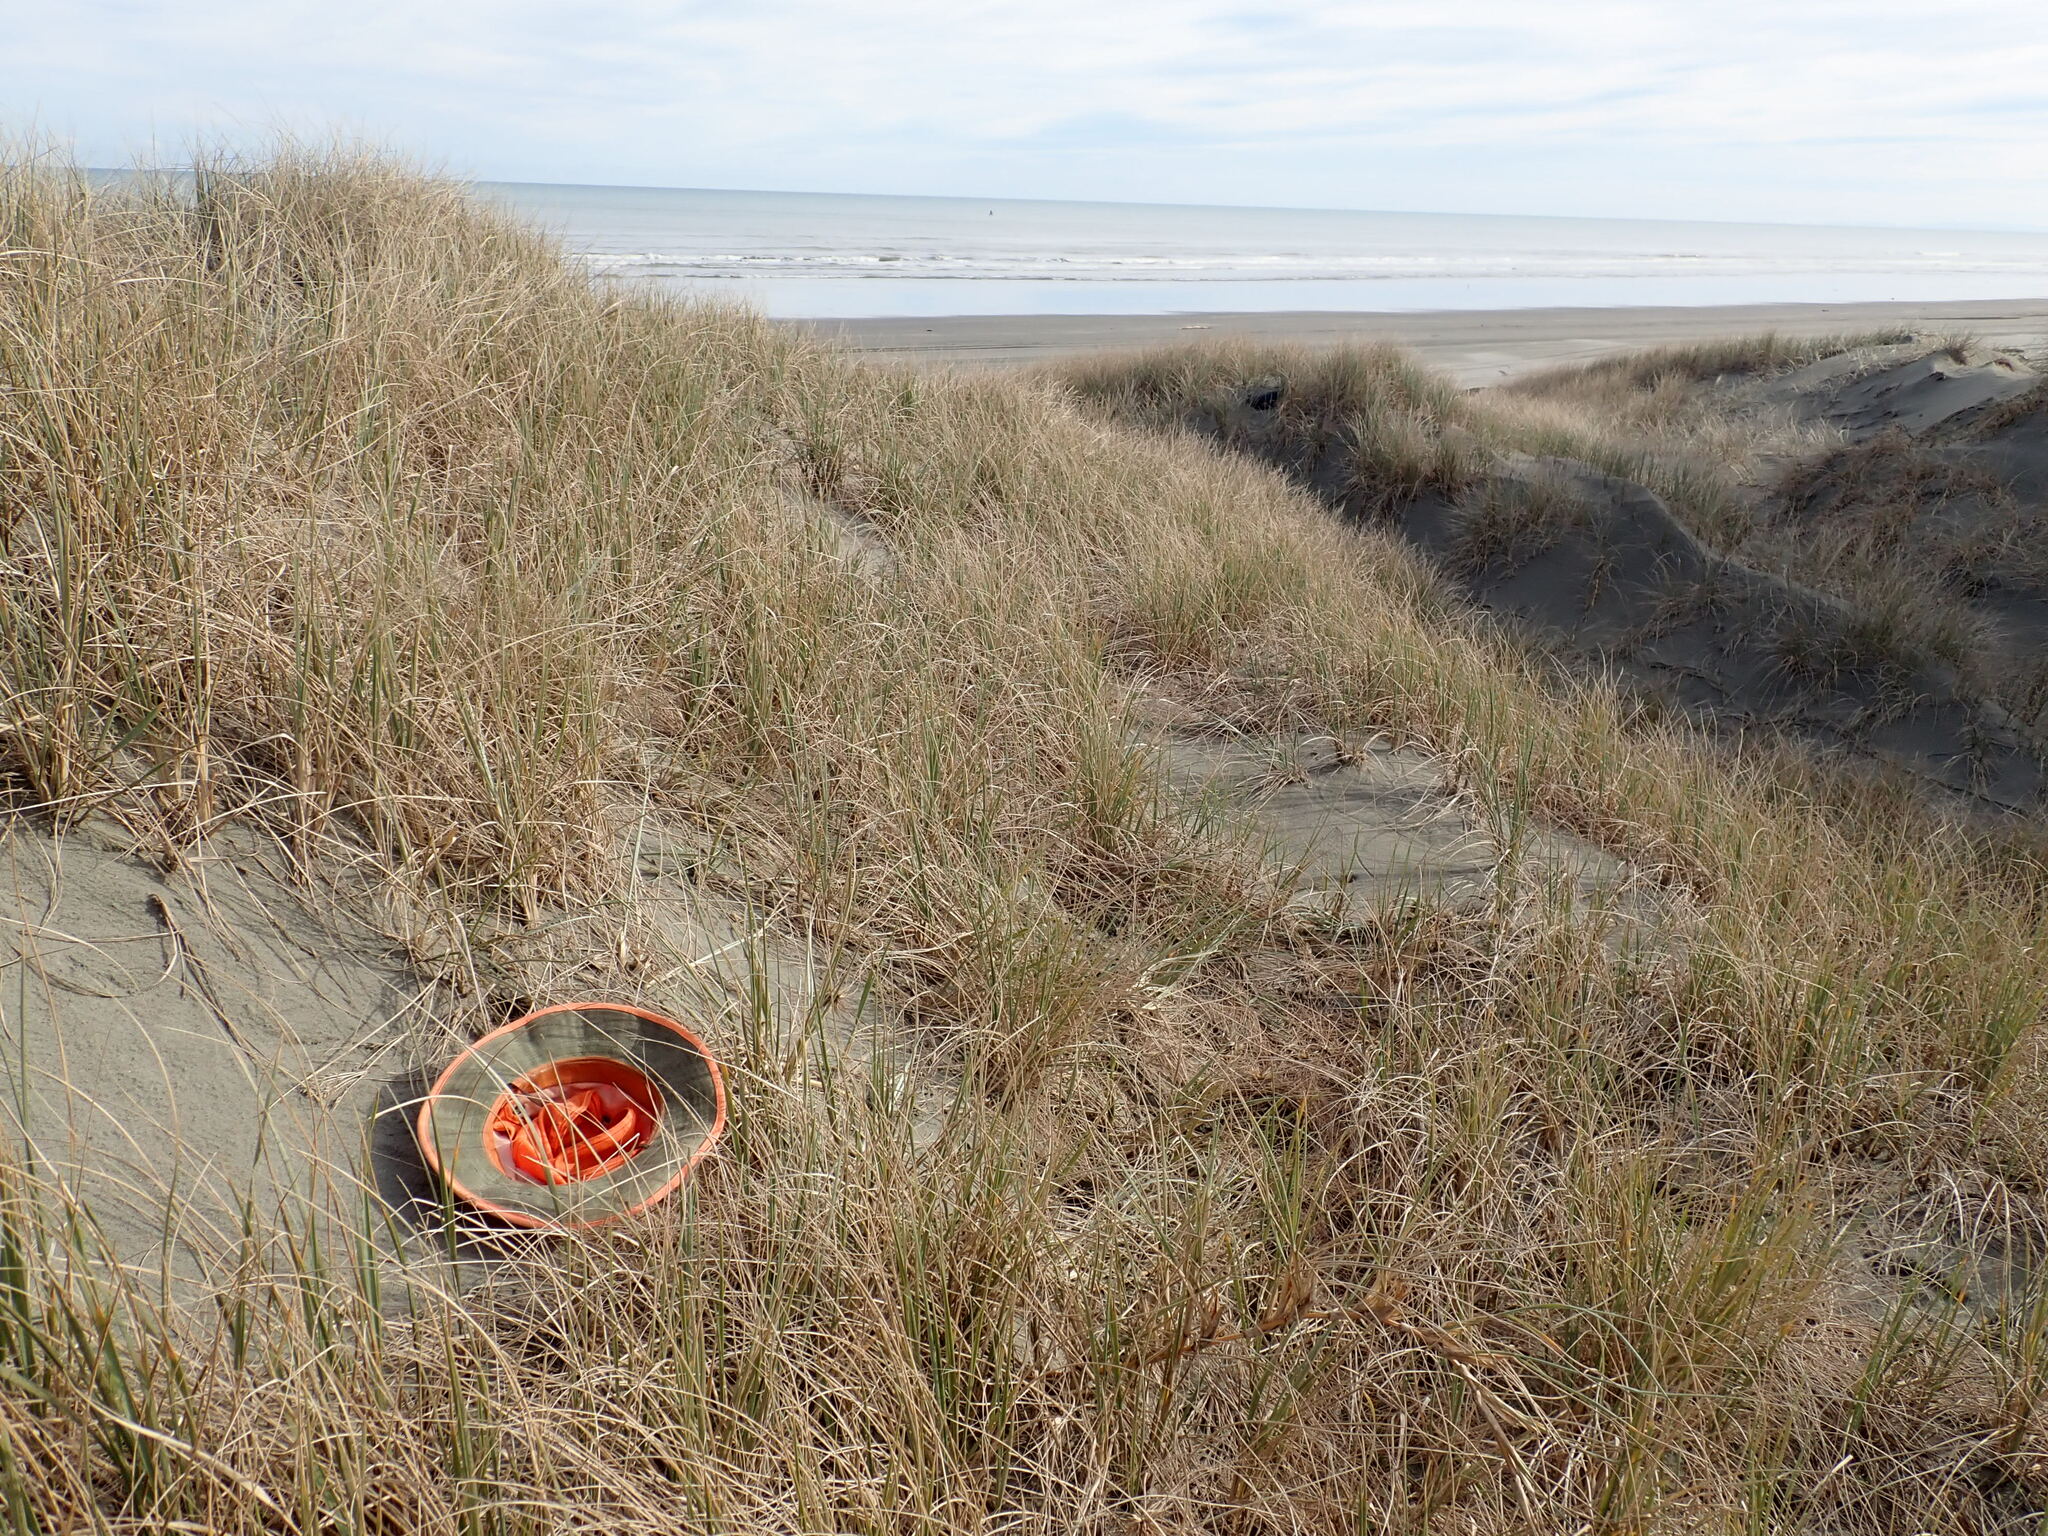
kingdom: Animalia
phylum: Arthropoda
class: Arachnida
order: Araneae
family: Lycosidae
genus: Anoteropsis
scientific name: Anoteropsis litoralis
